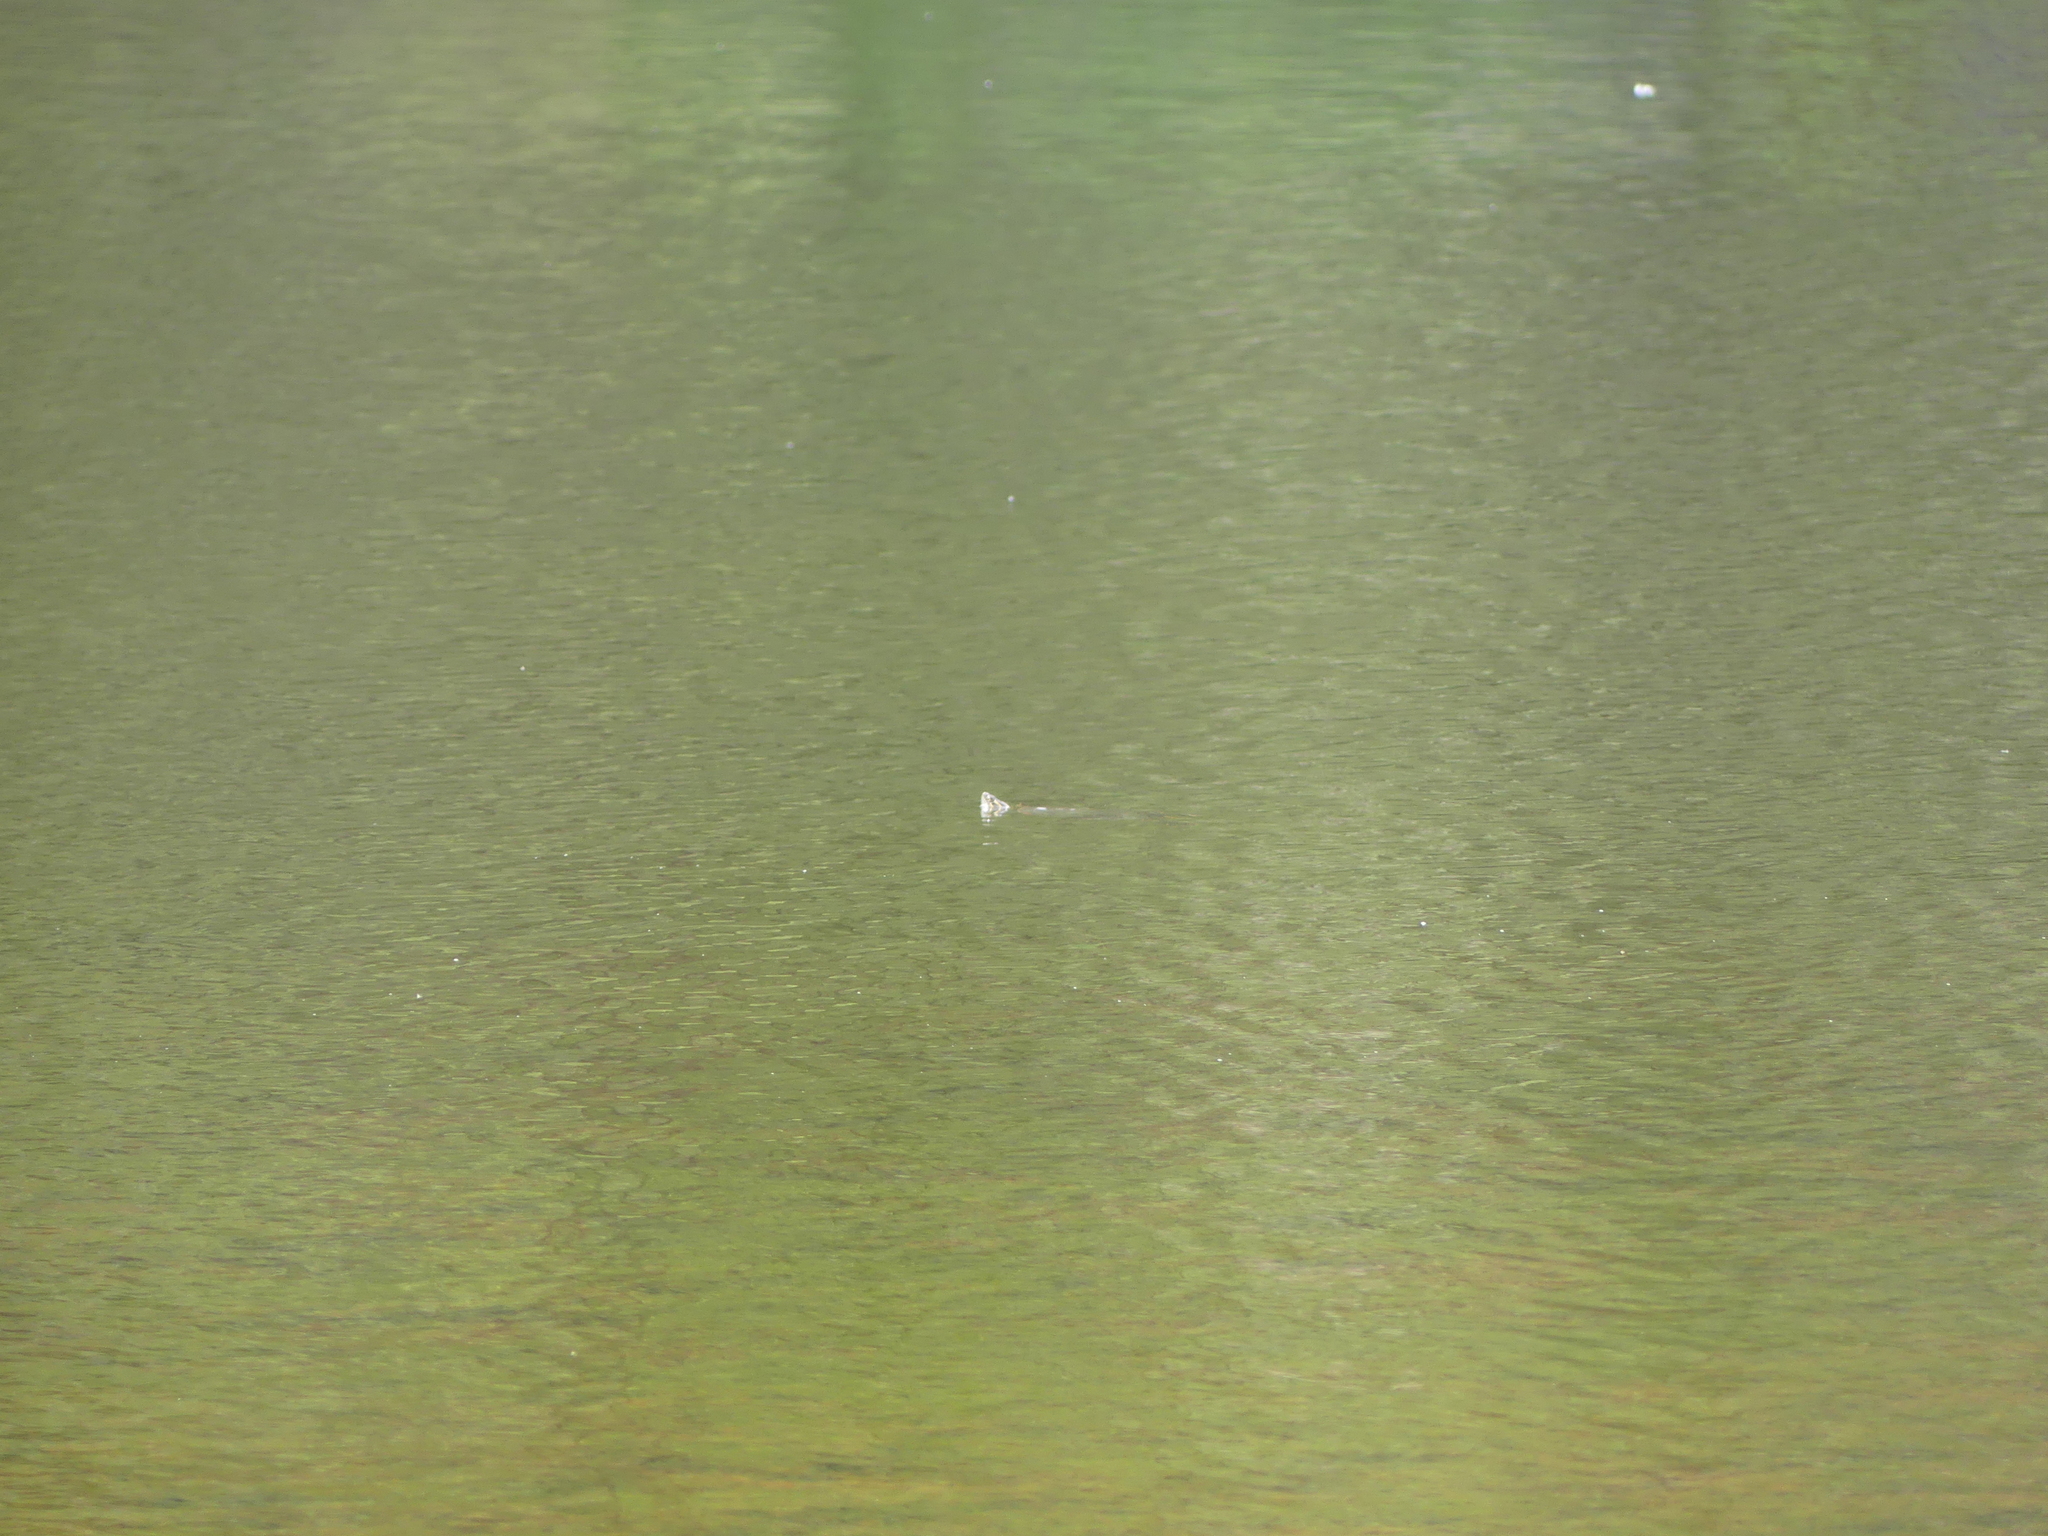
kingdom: Animalia
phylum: Chordata
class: Testudines
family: Emydidae
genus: Chrysemys
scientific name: Chrysemys picta
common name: Painted turtle
